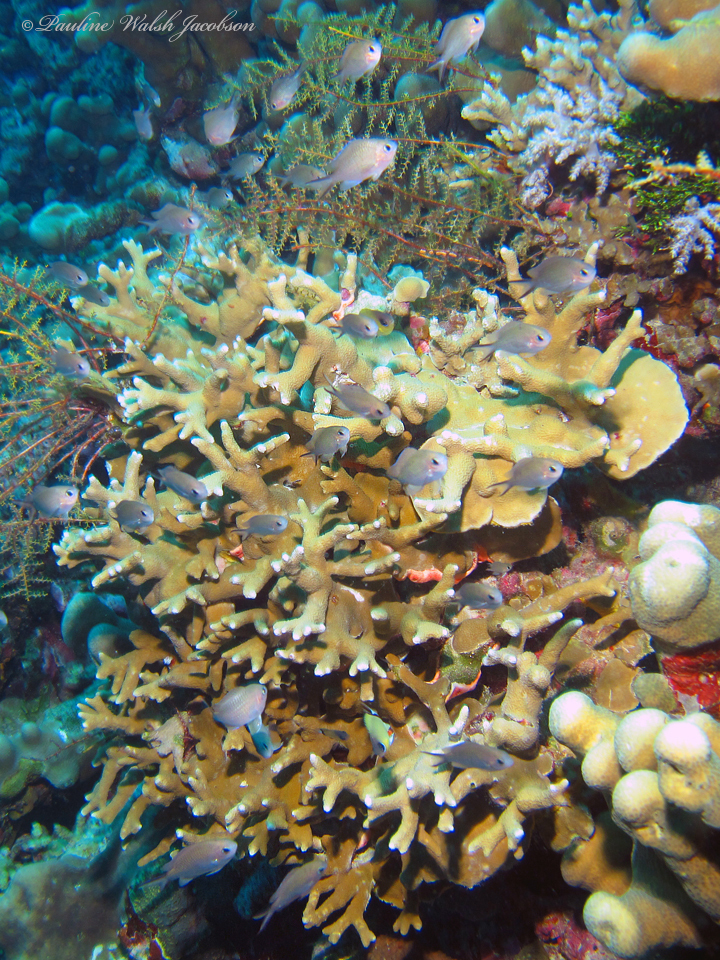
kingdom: Animalia
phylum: Chordata
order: Perciformes
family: Pomacentridae
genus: Chromis
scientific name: Chromis ternatensis
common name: Ternate chromis
